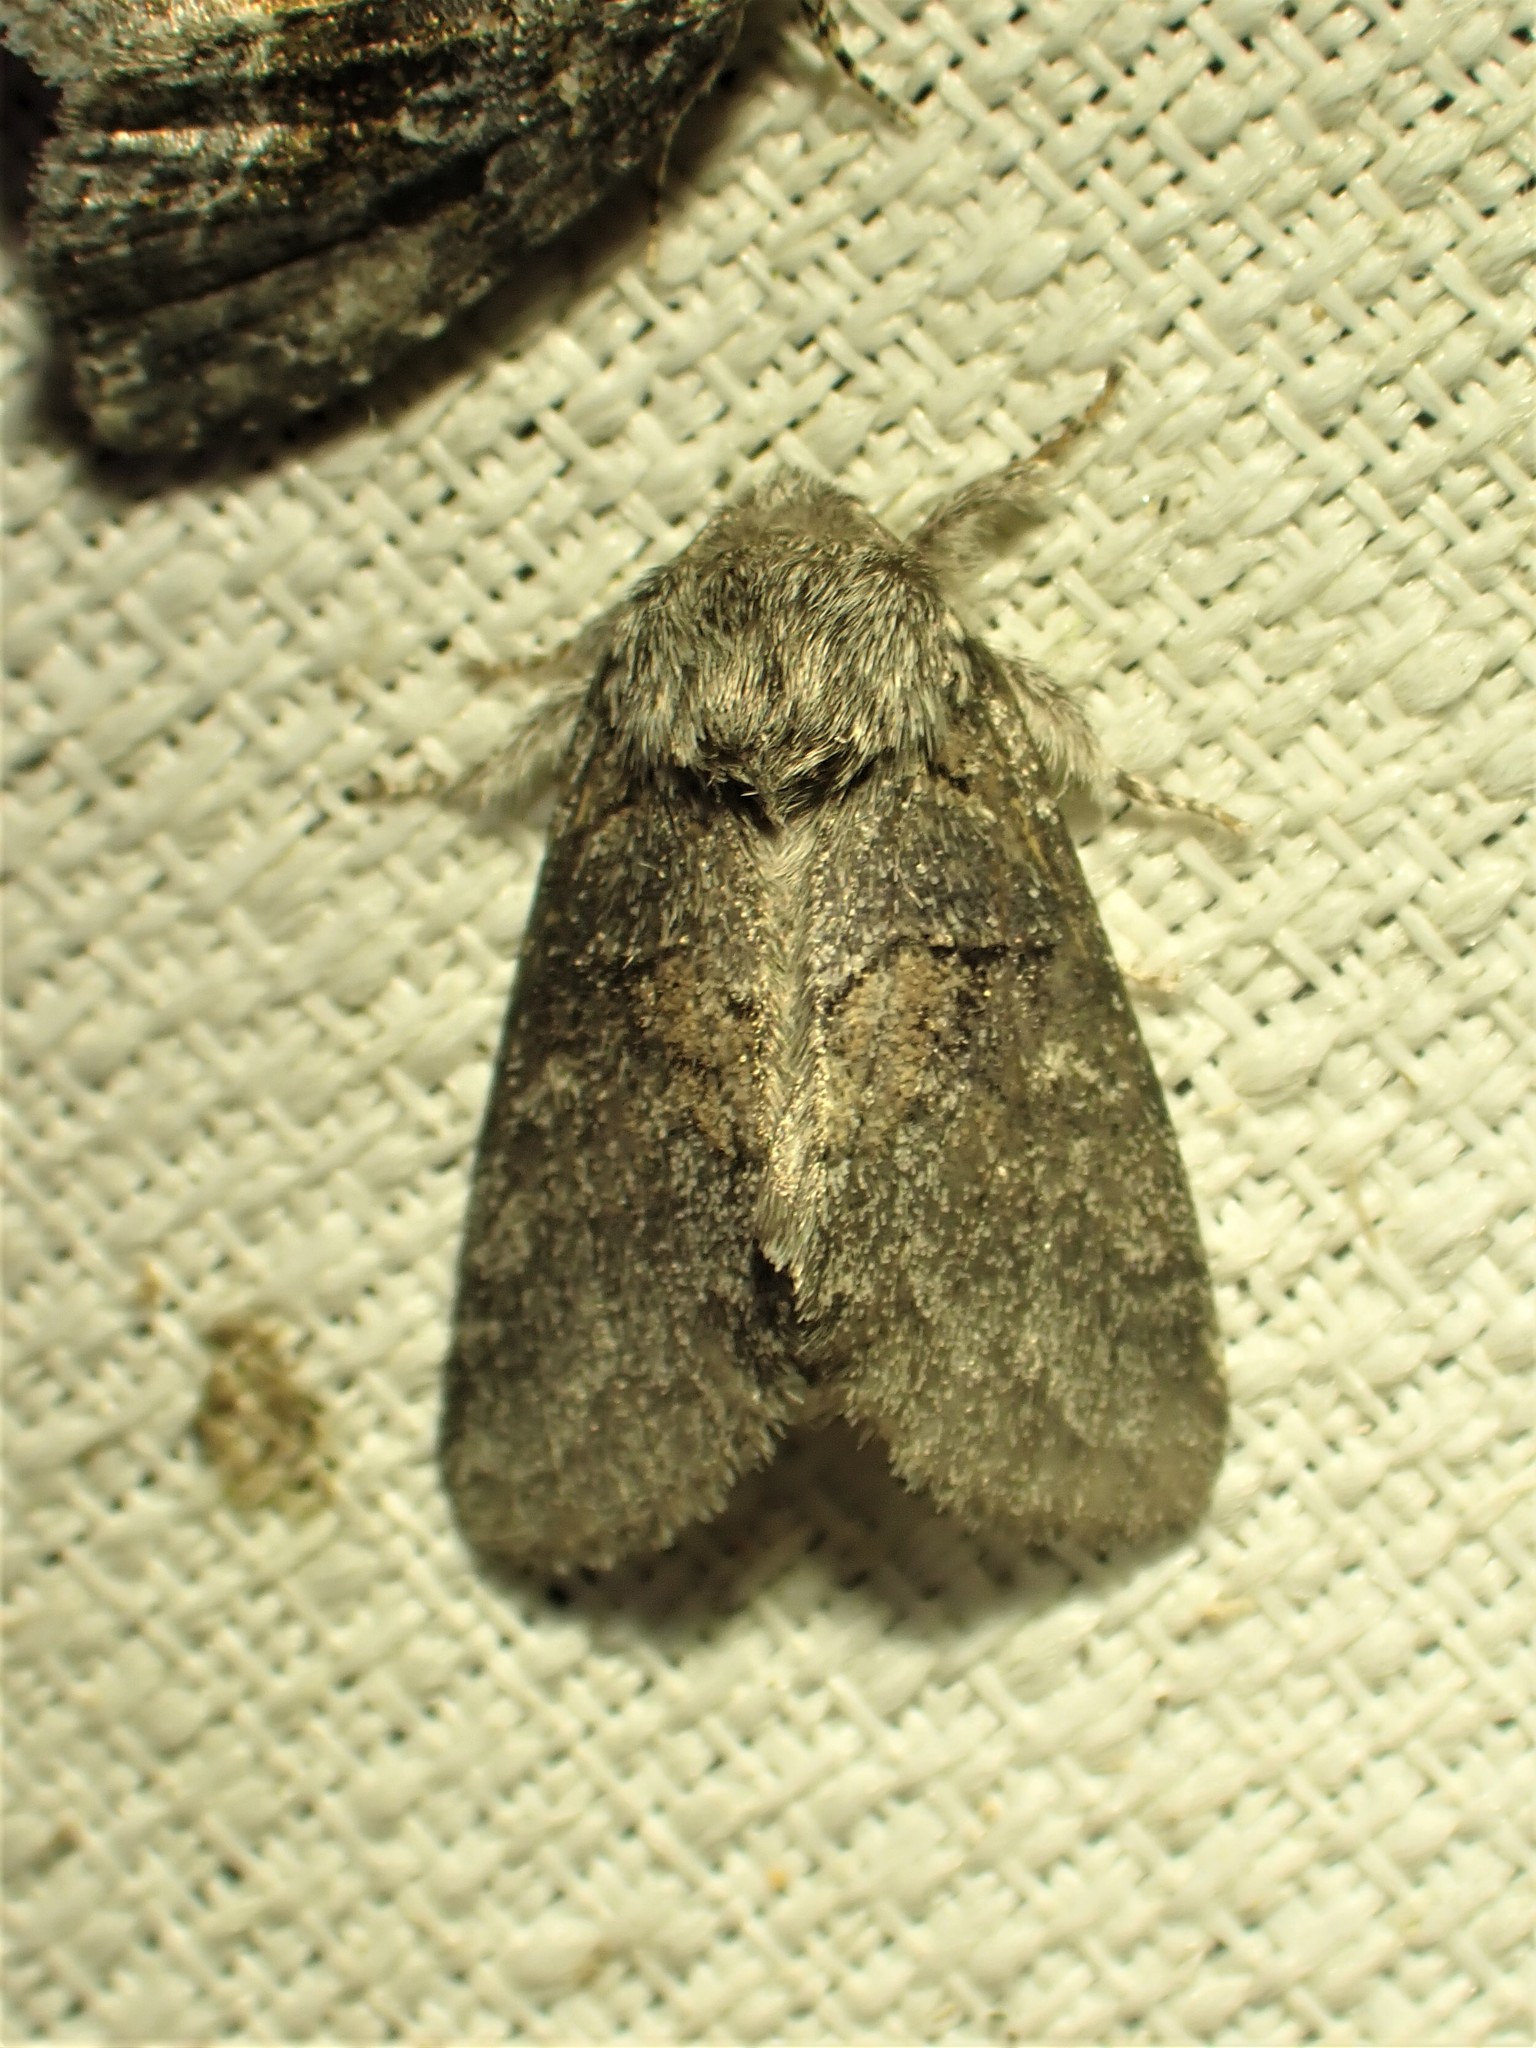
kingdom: Animalia
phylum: Arthropoda
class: Insecta
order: Lepidoptera
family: Notodontidae
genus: Gluphisia
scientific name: Gluphisia septentrionis
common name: Common gluphisia
